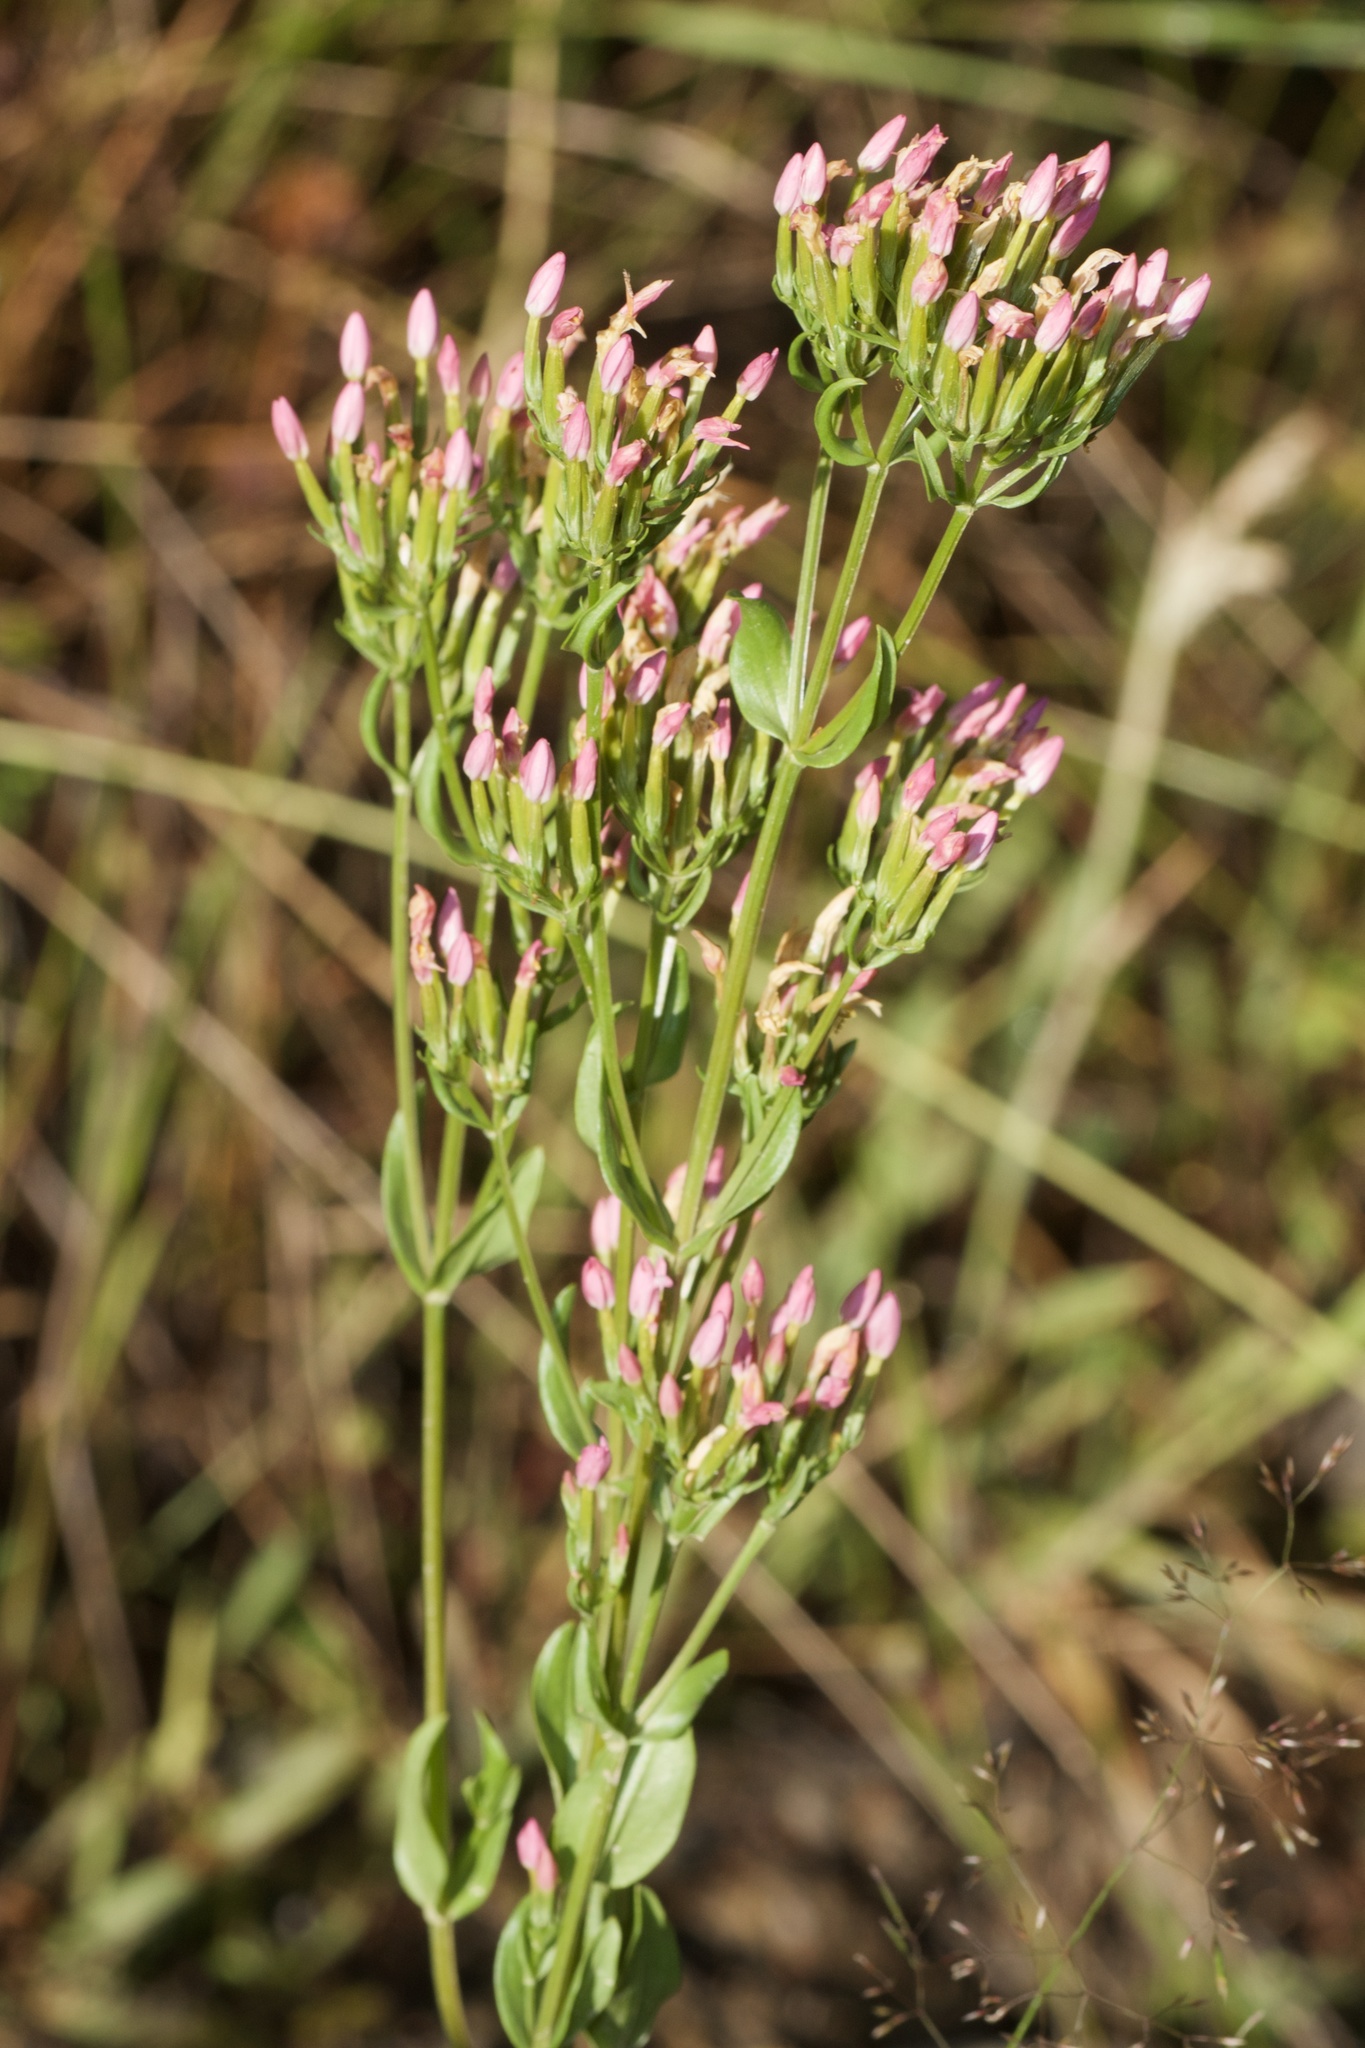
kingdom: Plantae
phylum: Tracheophyta
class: Magnoliopsida
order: Gentianales
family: Gentianaceae
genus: Centaurium
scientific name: Centaurium erythraea
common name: Common centaury
